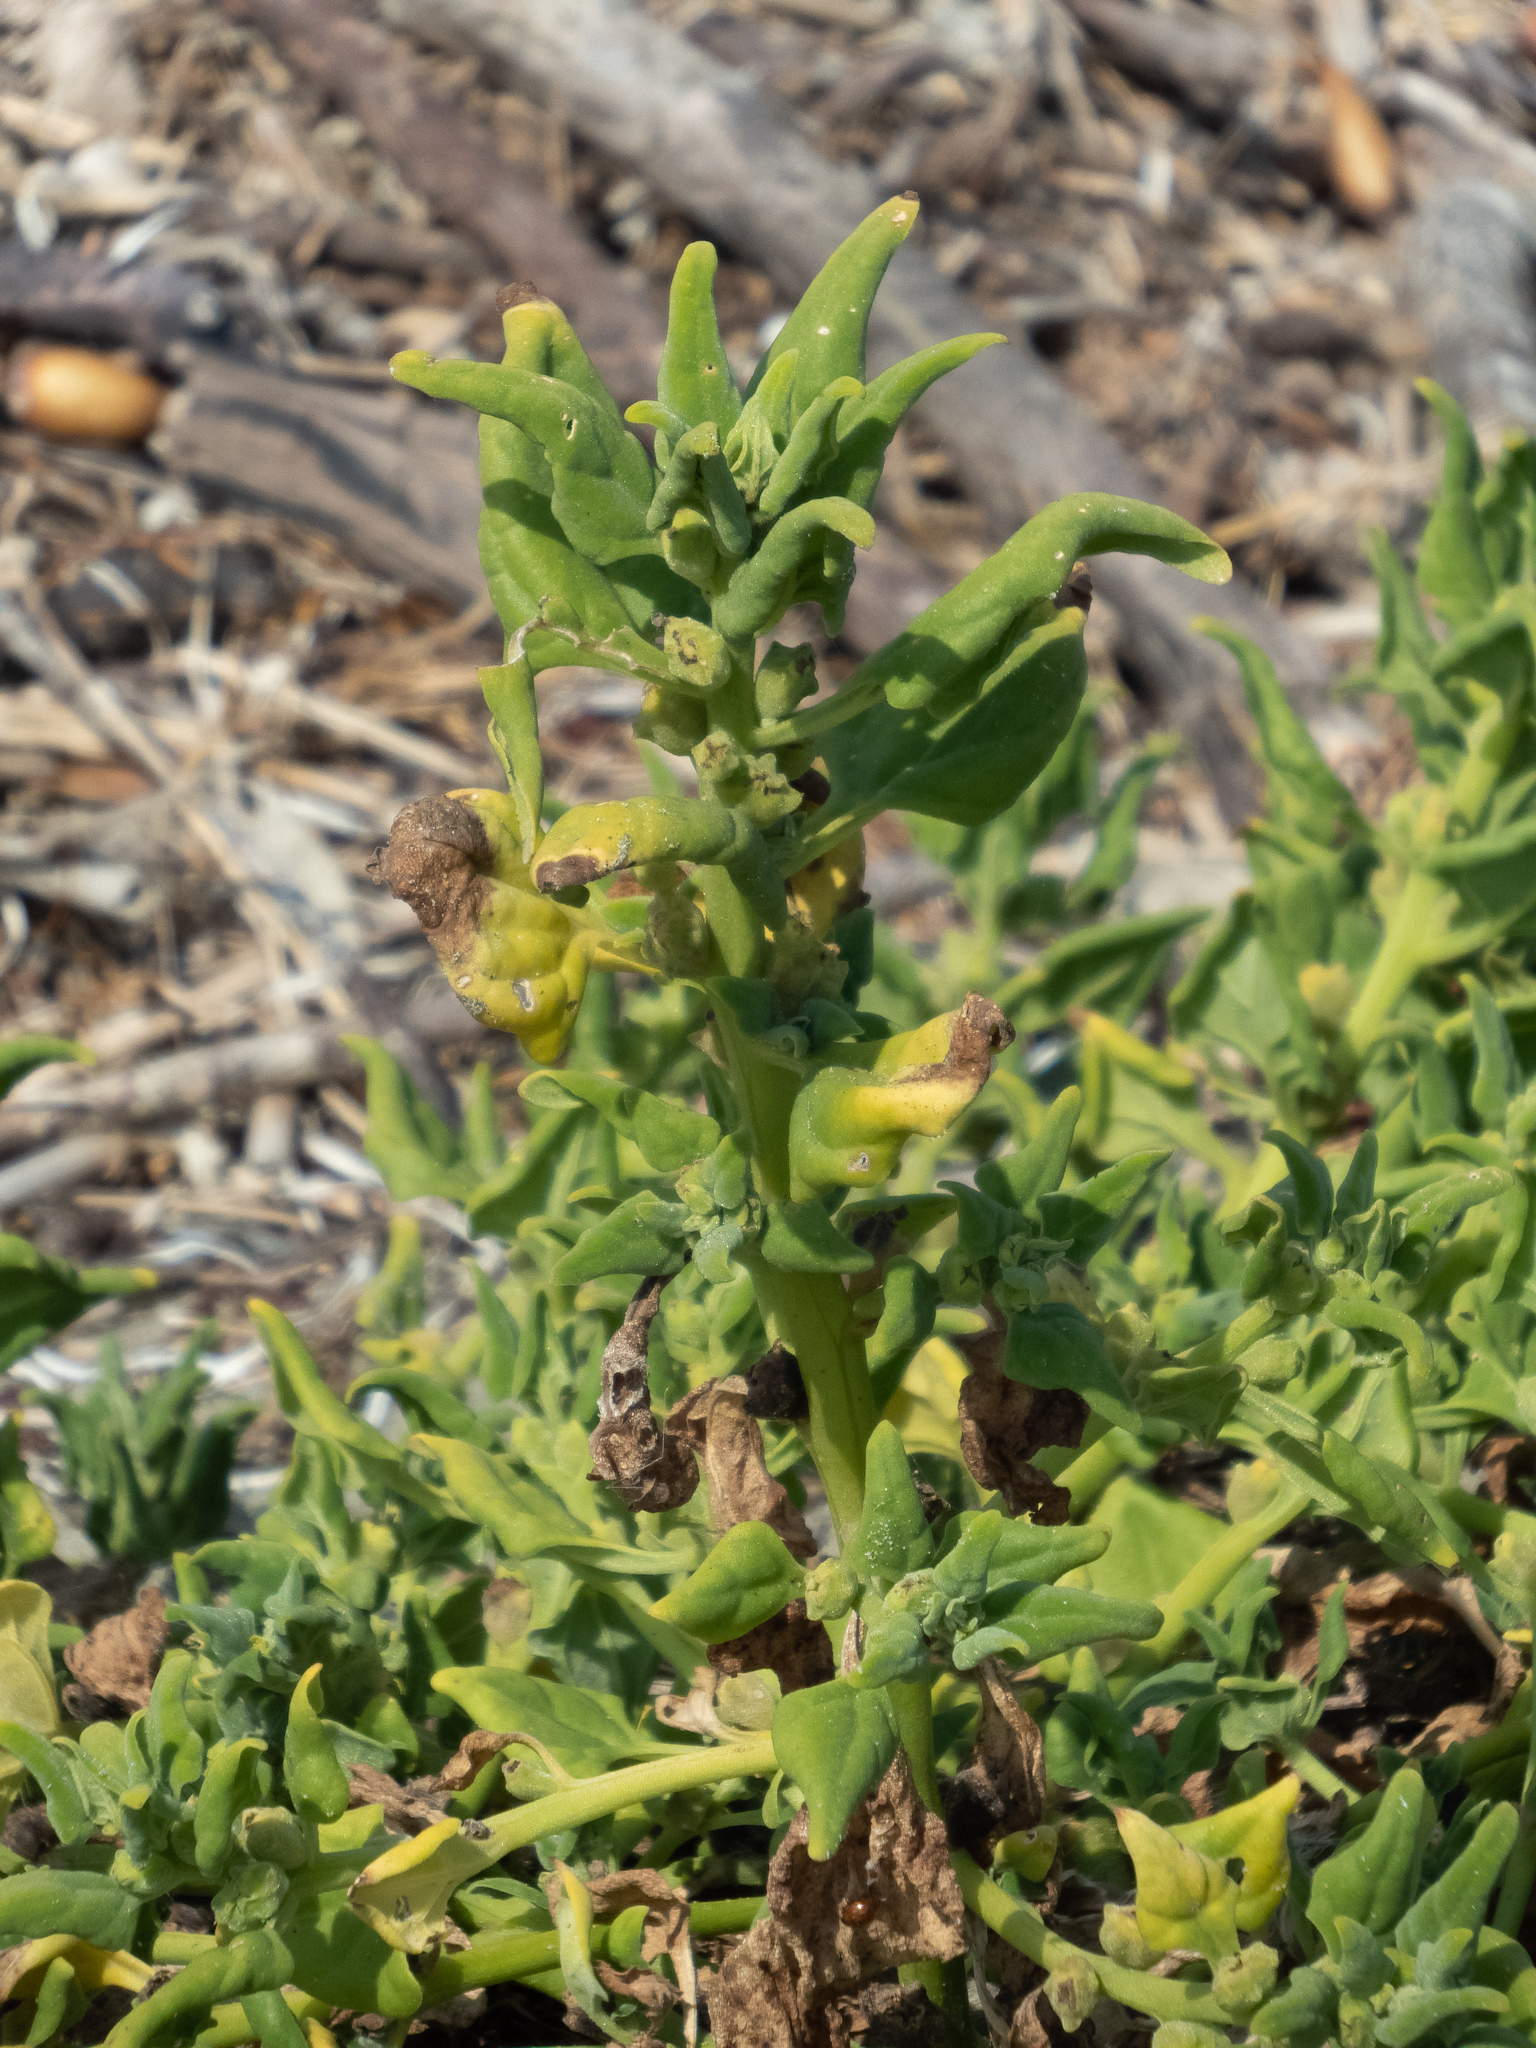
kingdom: Plantae
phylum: Tracheophyta
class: Magnoliopsida
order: Caryophyllales
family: Aizoaceae
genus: Tetragonia
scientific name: Tetragonia tetragonoides
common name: New zealand-spinach
